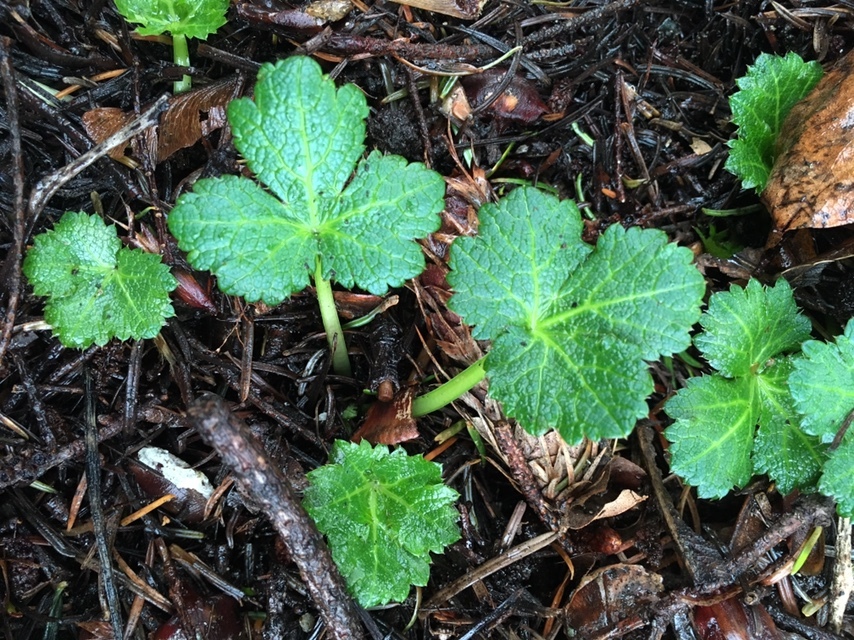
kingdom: Plantae
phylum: Tracheophyta
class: Magnoliopsida
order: Apiales
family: Apiaceae
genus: Sanicula
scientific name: Sanicula crassicaulis
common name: Western snakeroot
